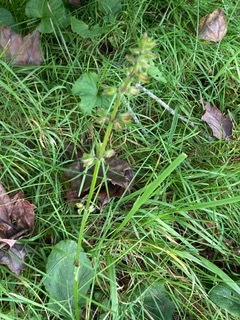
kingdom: Plantae
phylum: Tracheophyta
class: Magnoliopsida
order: Lamiales
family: Lamiaceae
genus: Salvia
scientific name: Salvia lyrata
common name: Cancerweed
